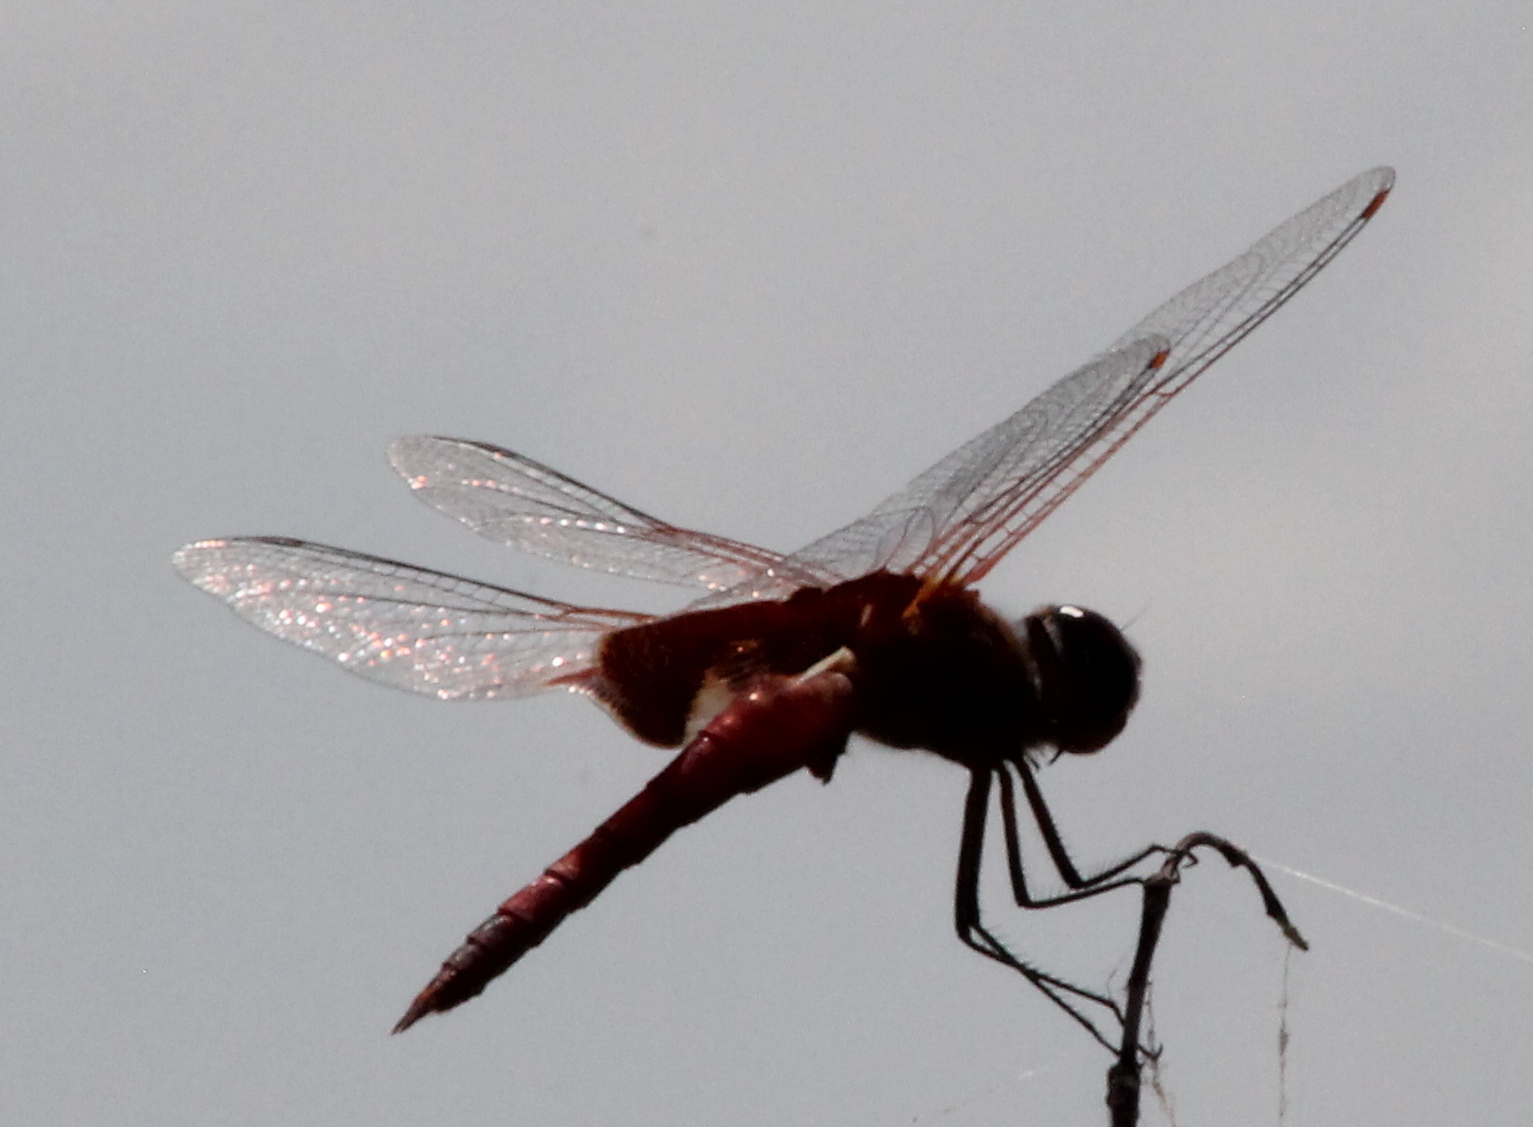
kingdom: Animalia
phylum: Arthropoda
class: Insecta
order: Odonata
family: Libellulidae
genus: Tramea
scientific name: Tramea onusta
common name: Red saddlebags
